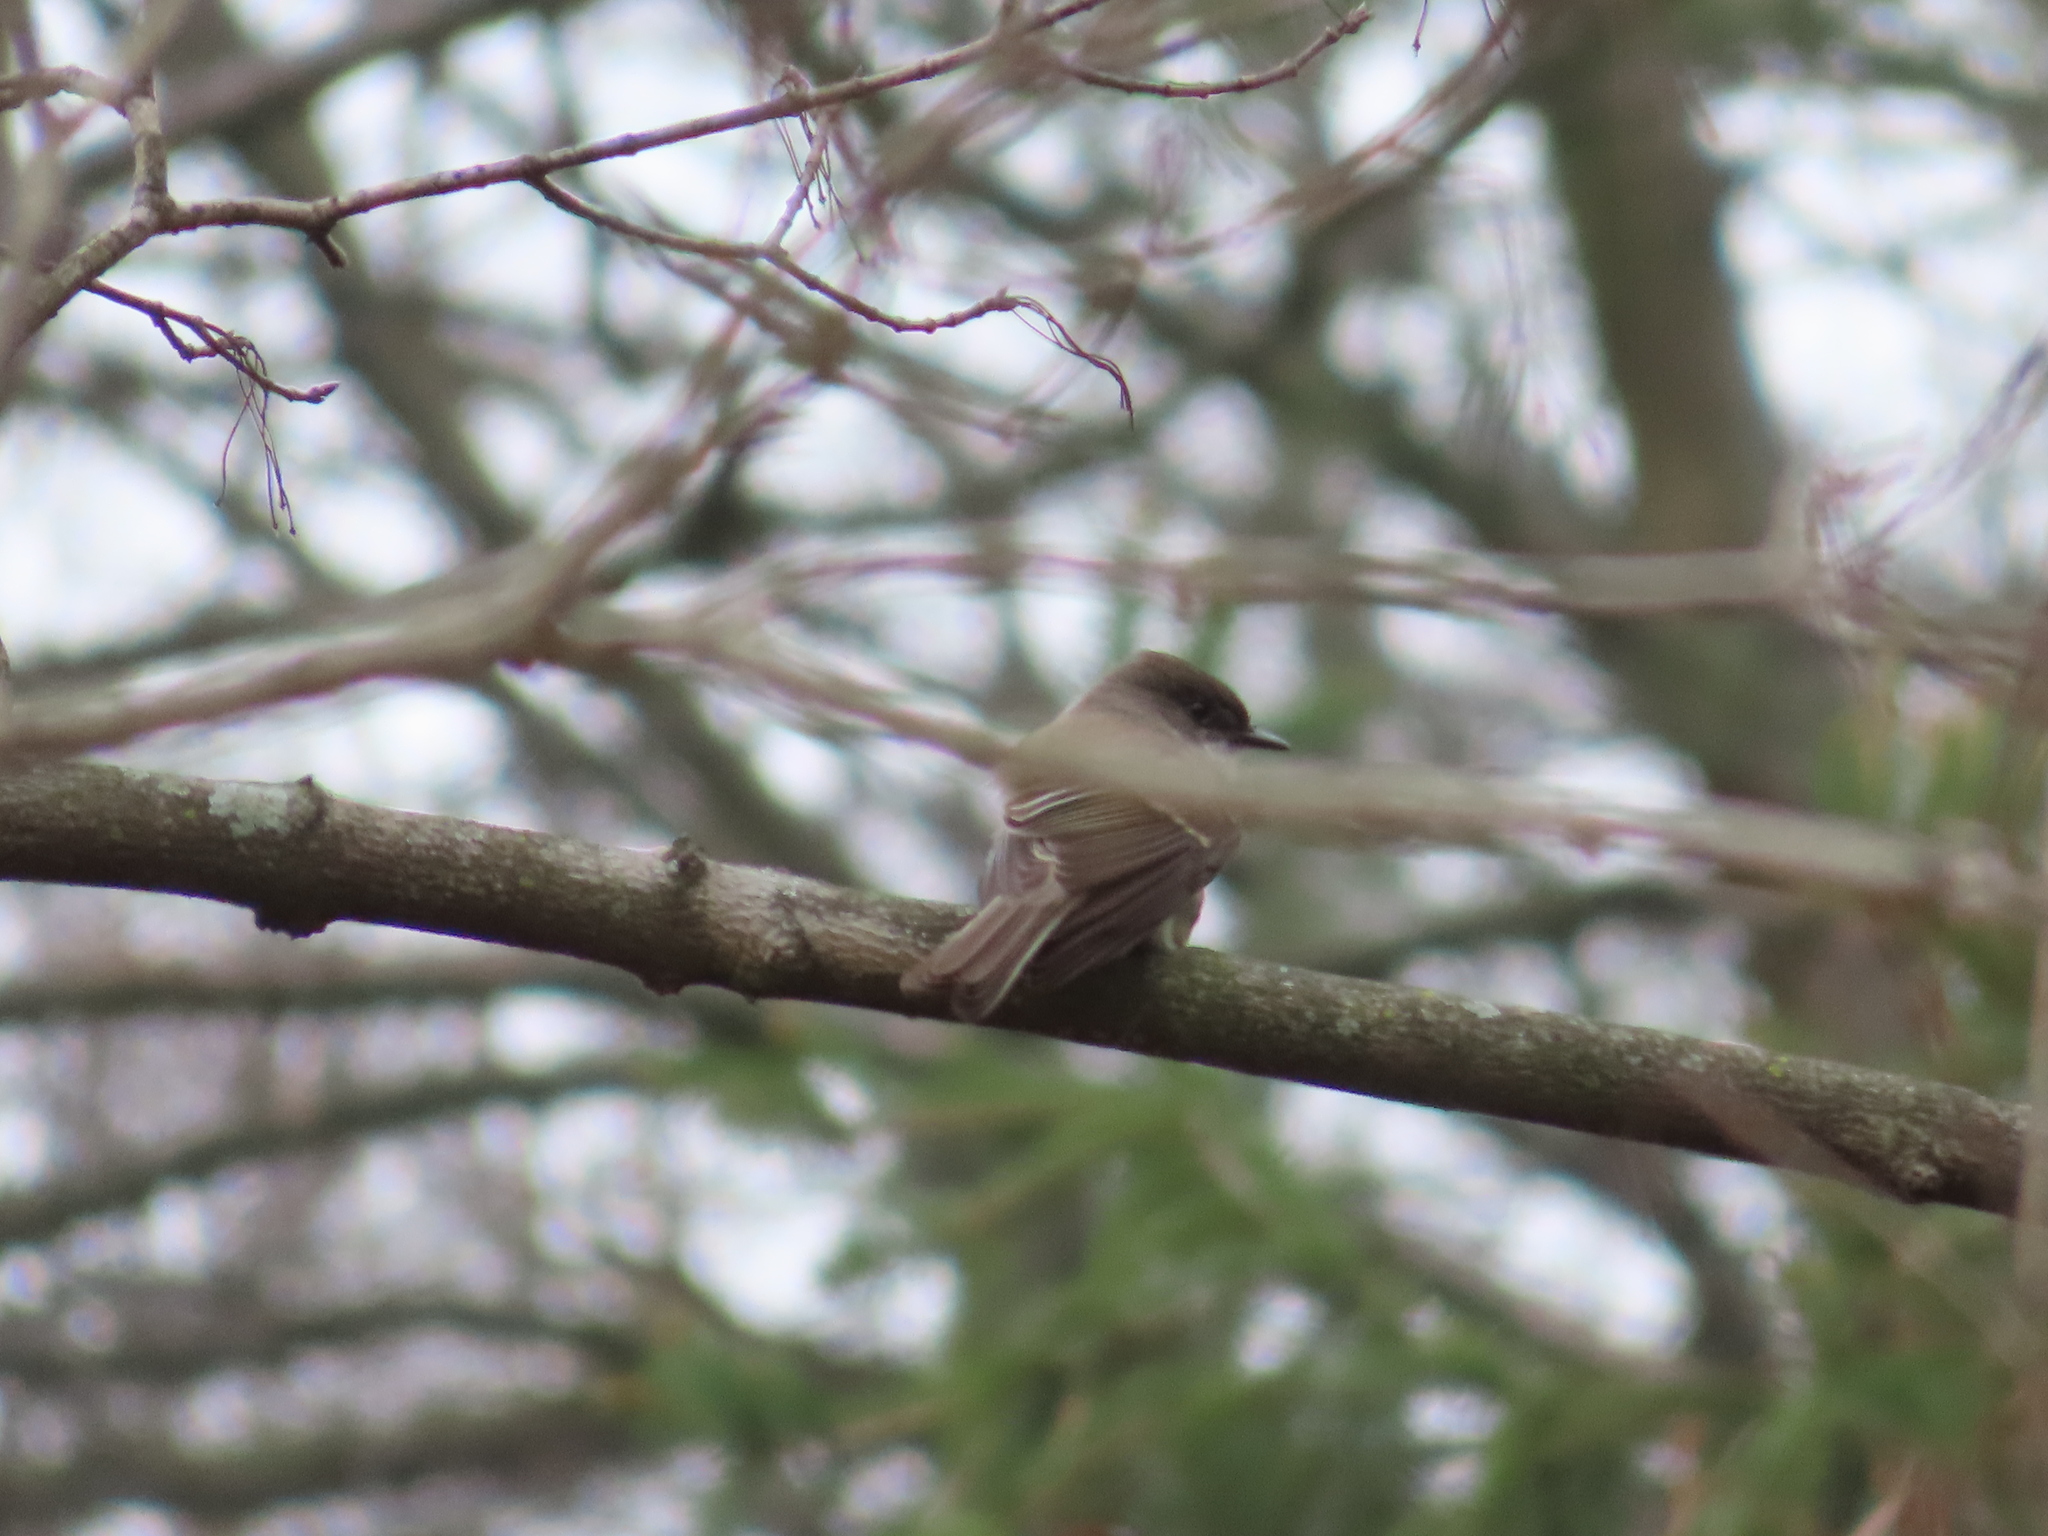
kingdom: Animalia
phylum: Chordata
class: Aves
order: Passeriformes
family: Tyrannidae
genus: Sayornis
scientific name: Sayornis phoebe
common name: Eastern phoebe
